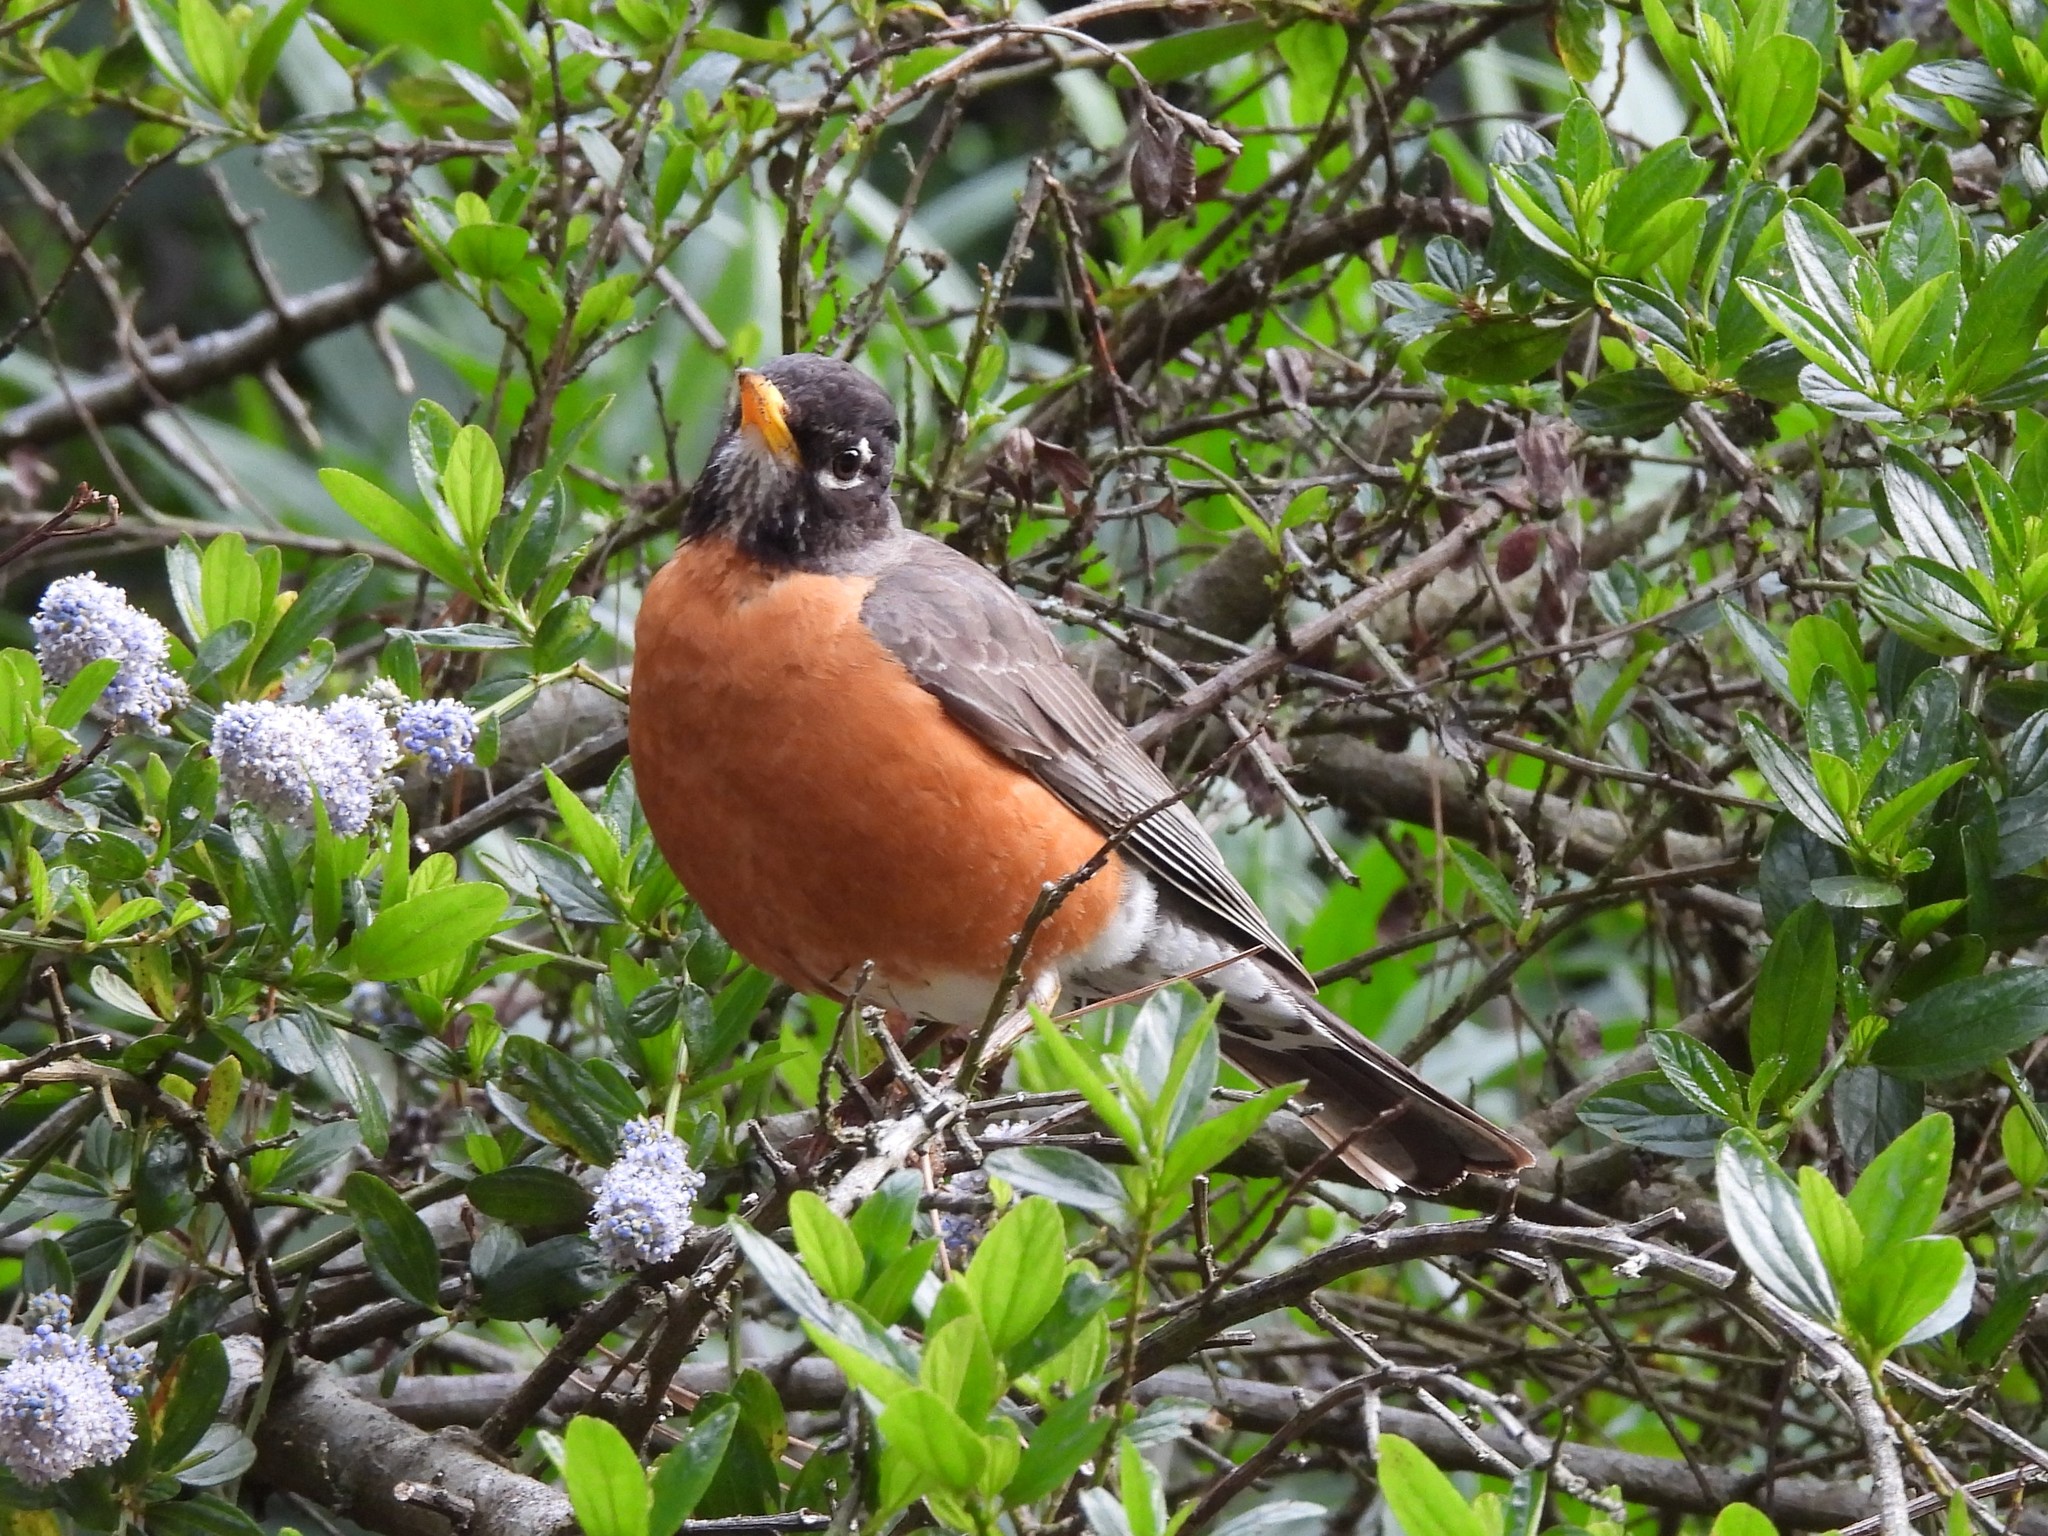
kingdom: Animalia
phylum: Chordata
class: Aves
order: Passeriformes
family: Turdidae
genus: Turdus
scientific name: Turdus migratorius
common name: American robin
